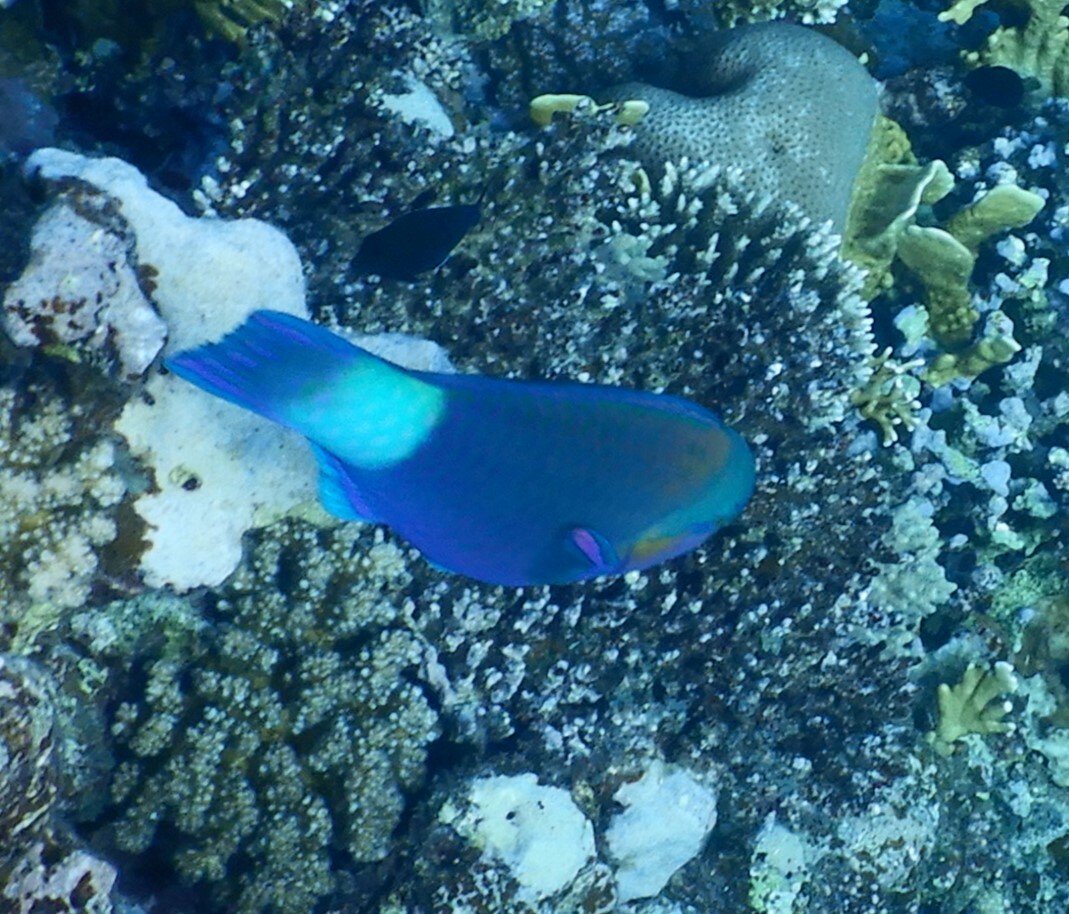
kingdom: Animalia
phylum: Chordata
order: Perciformes
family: Scaridae
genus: Chlorurus
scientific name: Chlorurus sordidus
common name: Bullethead parrotfish
